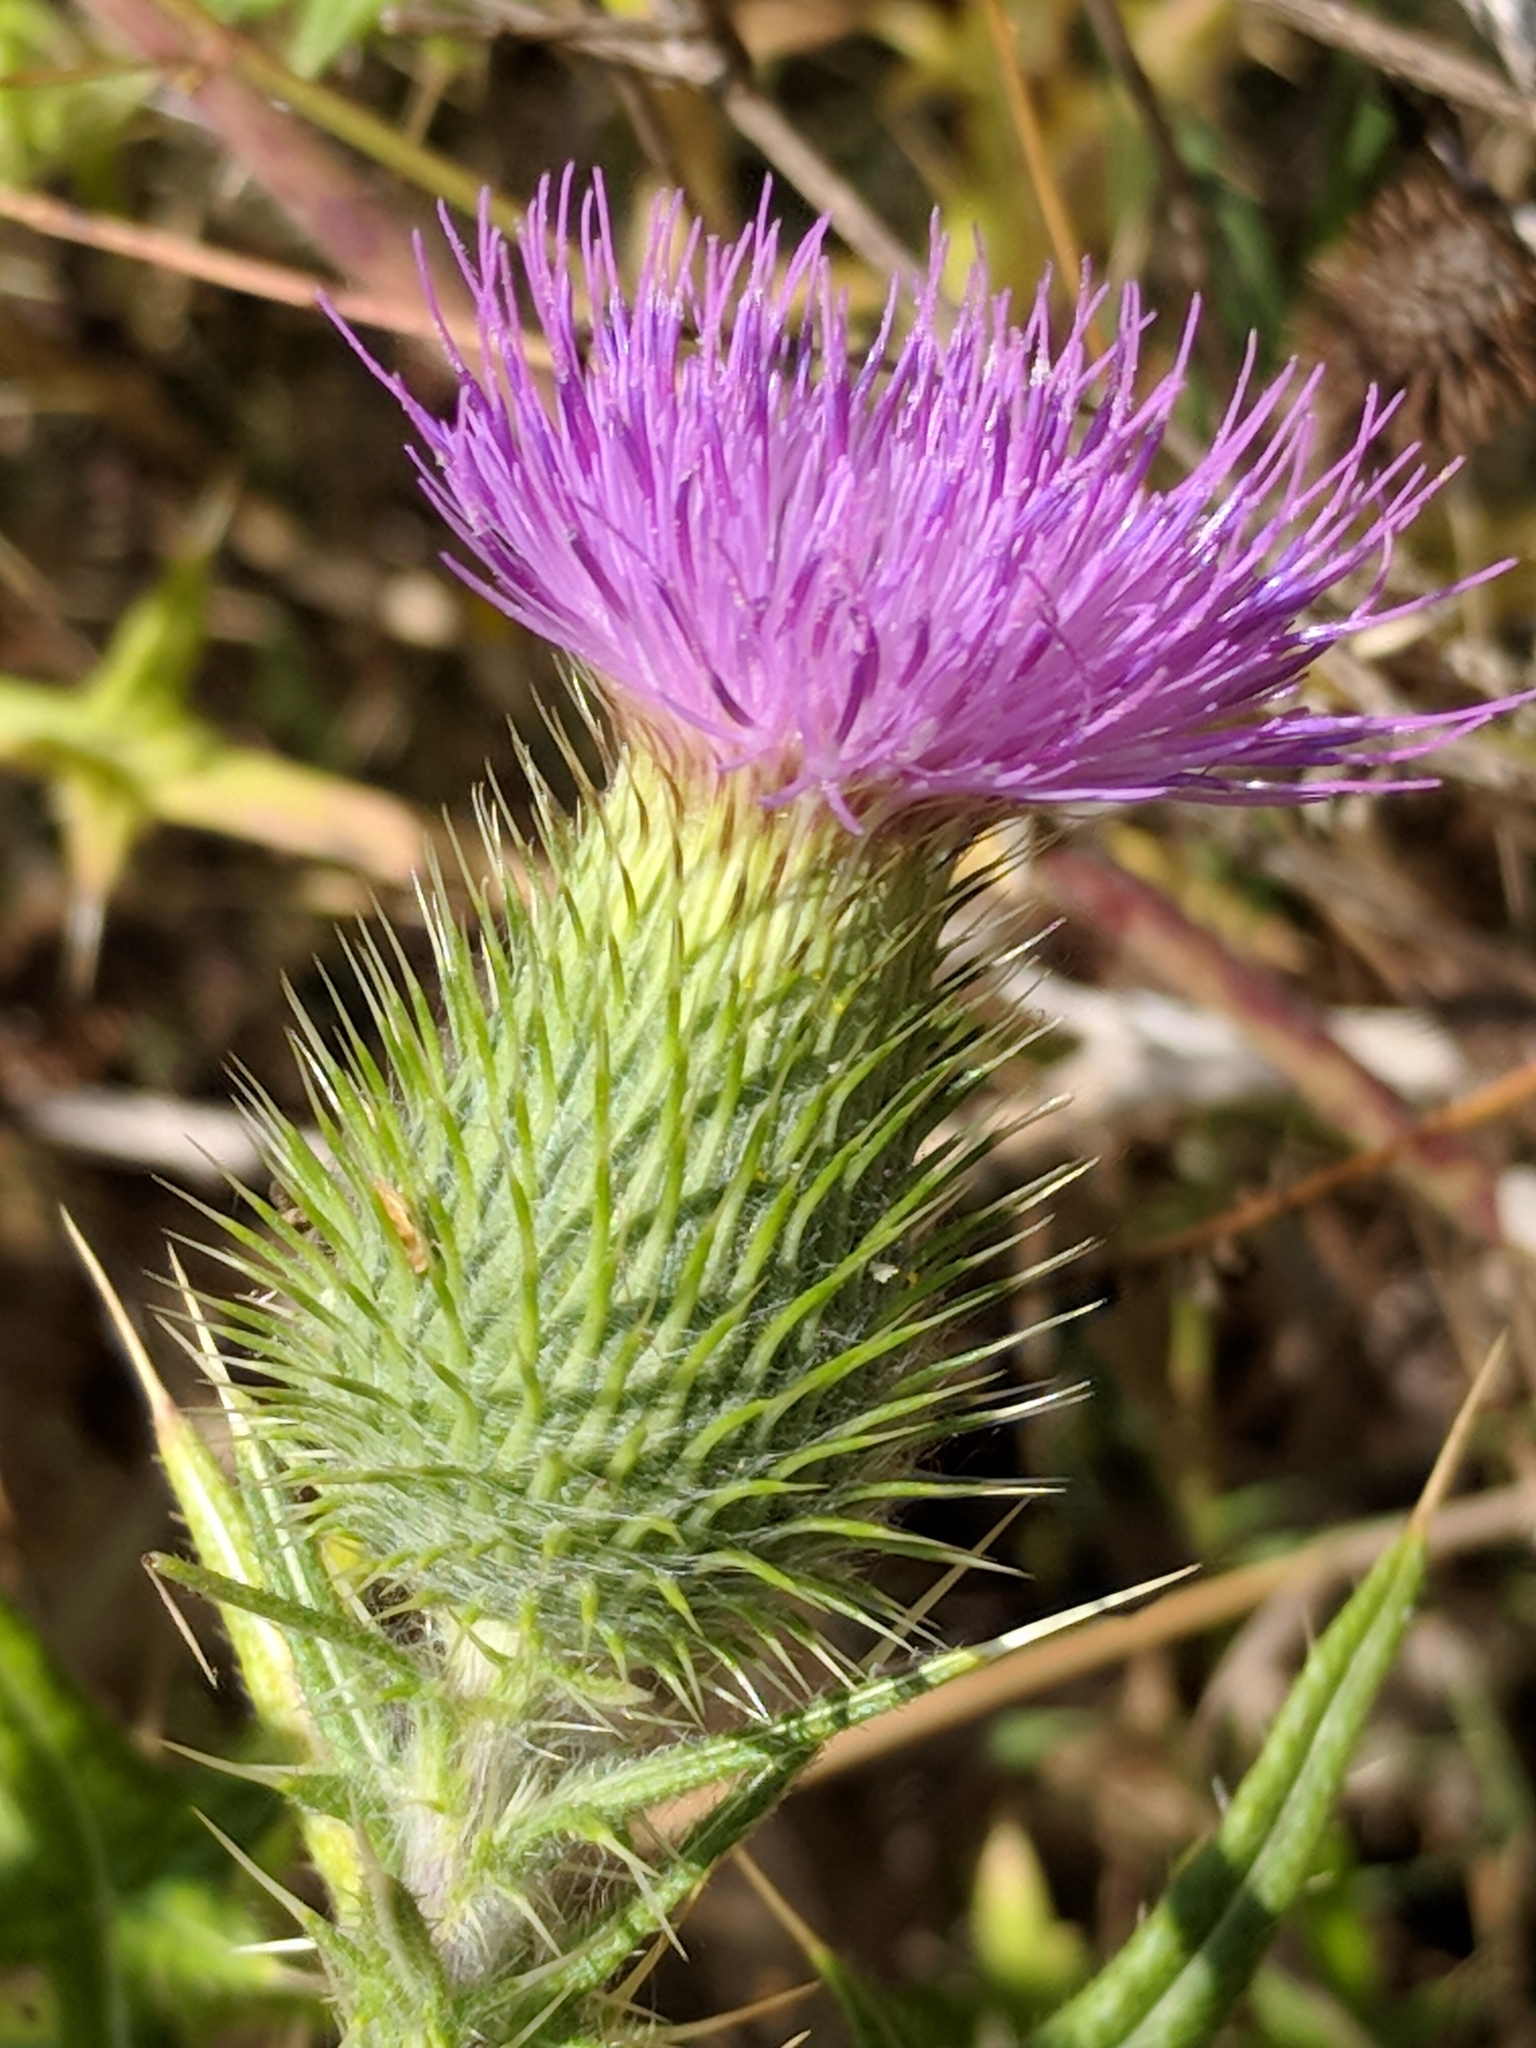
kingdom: Plantae
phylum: Tracheophyta
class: Magnoliopsida
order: Asterales
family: Asteraceae
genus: Cirsium
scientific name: Cirsium vulgare
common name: Bull thistle
